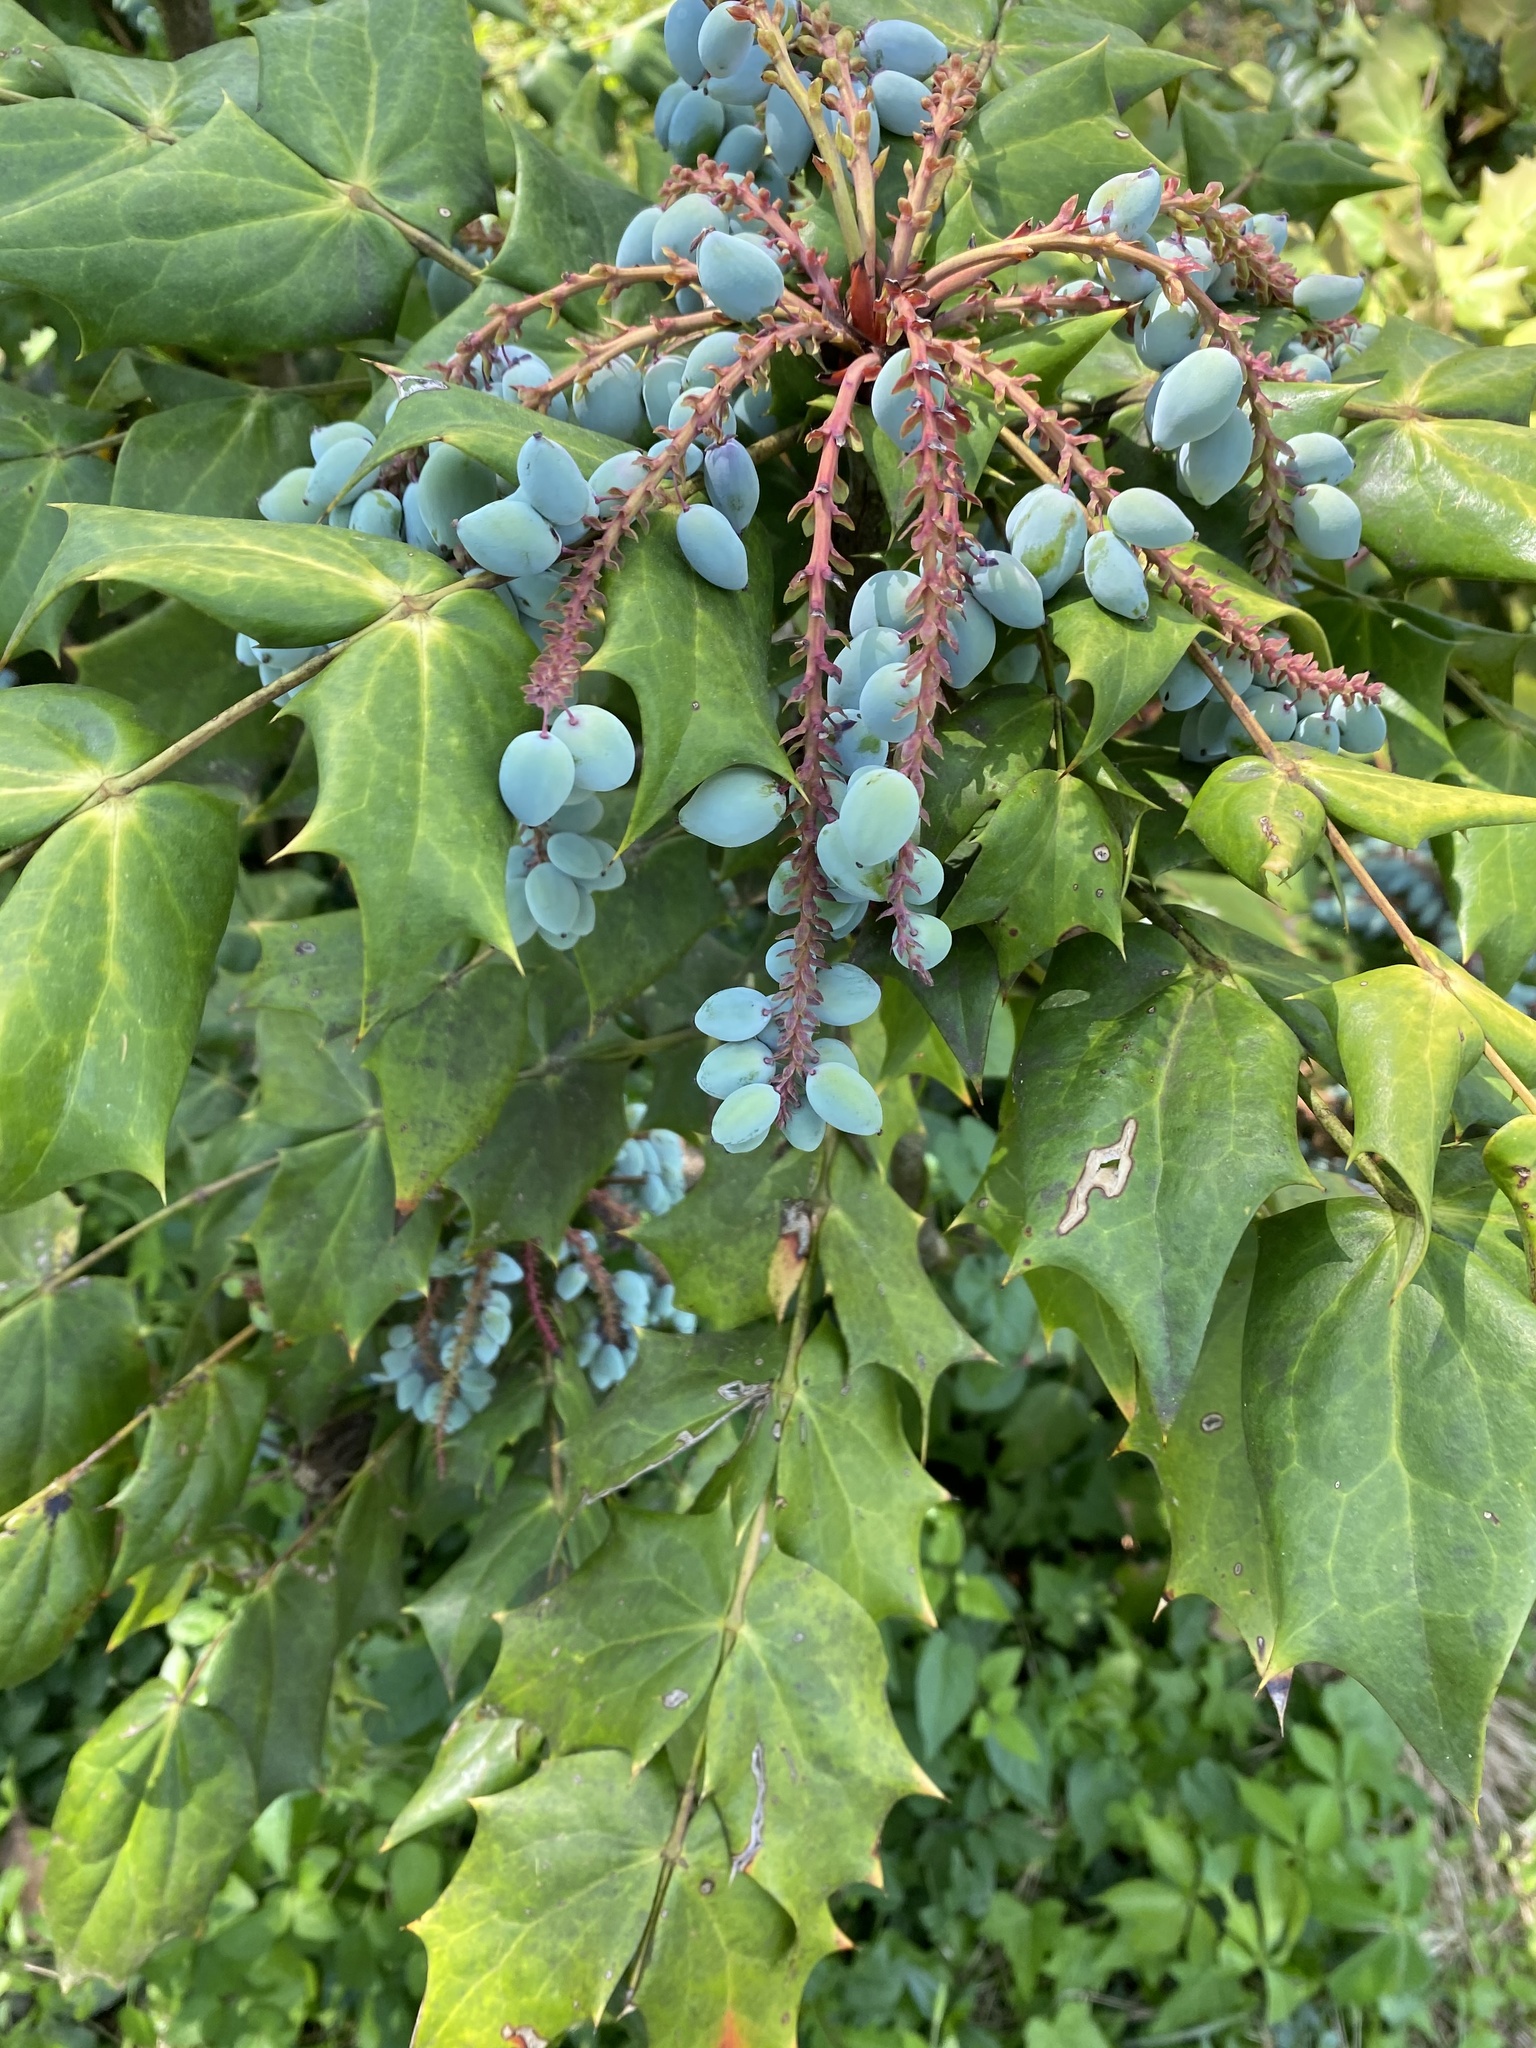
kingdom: Plantae
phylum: Tracheophyta
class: Magnoliopsida
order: Ranunculales
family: Berberidaceae
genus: Mahonia
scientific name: Mahonia bealei
